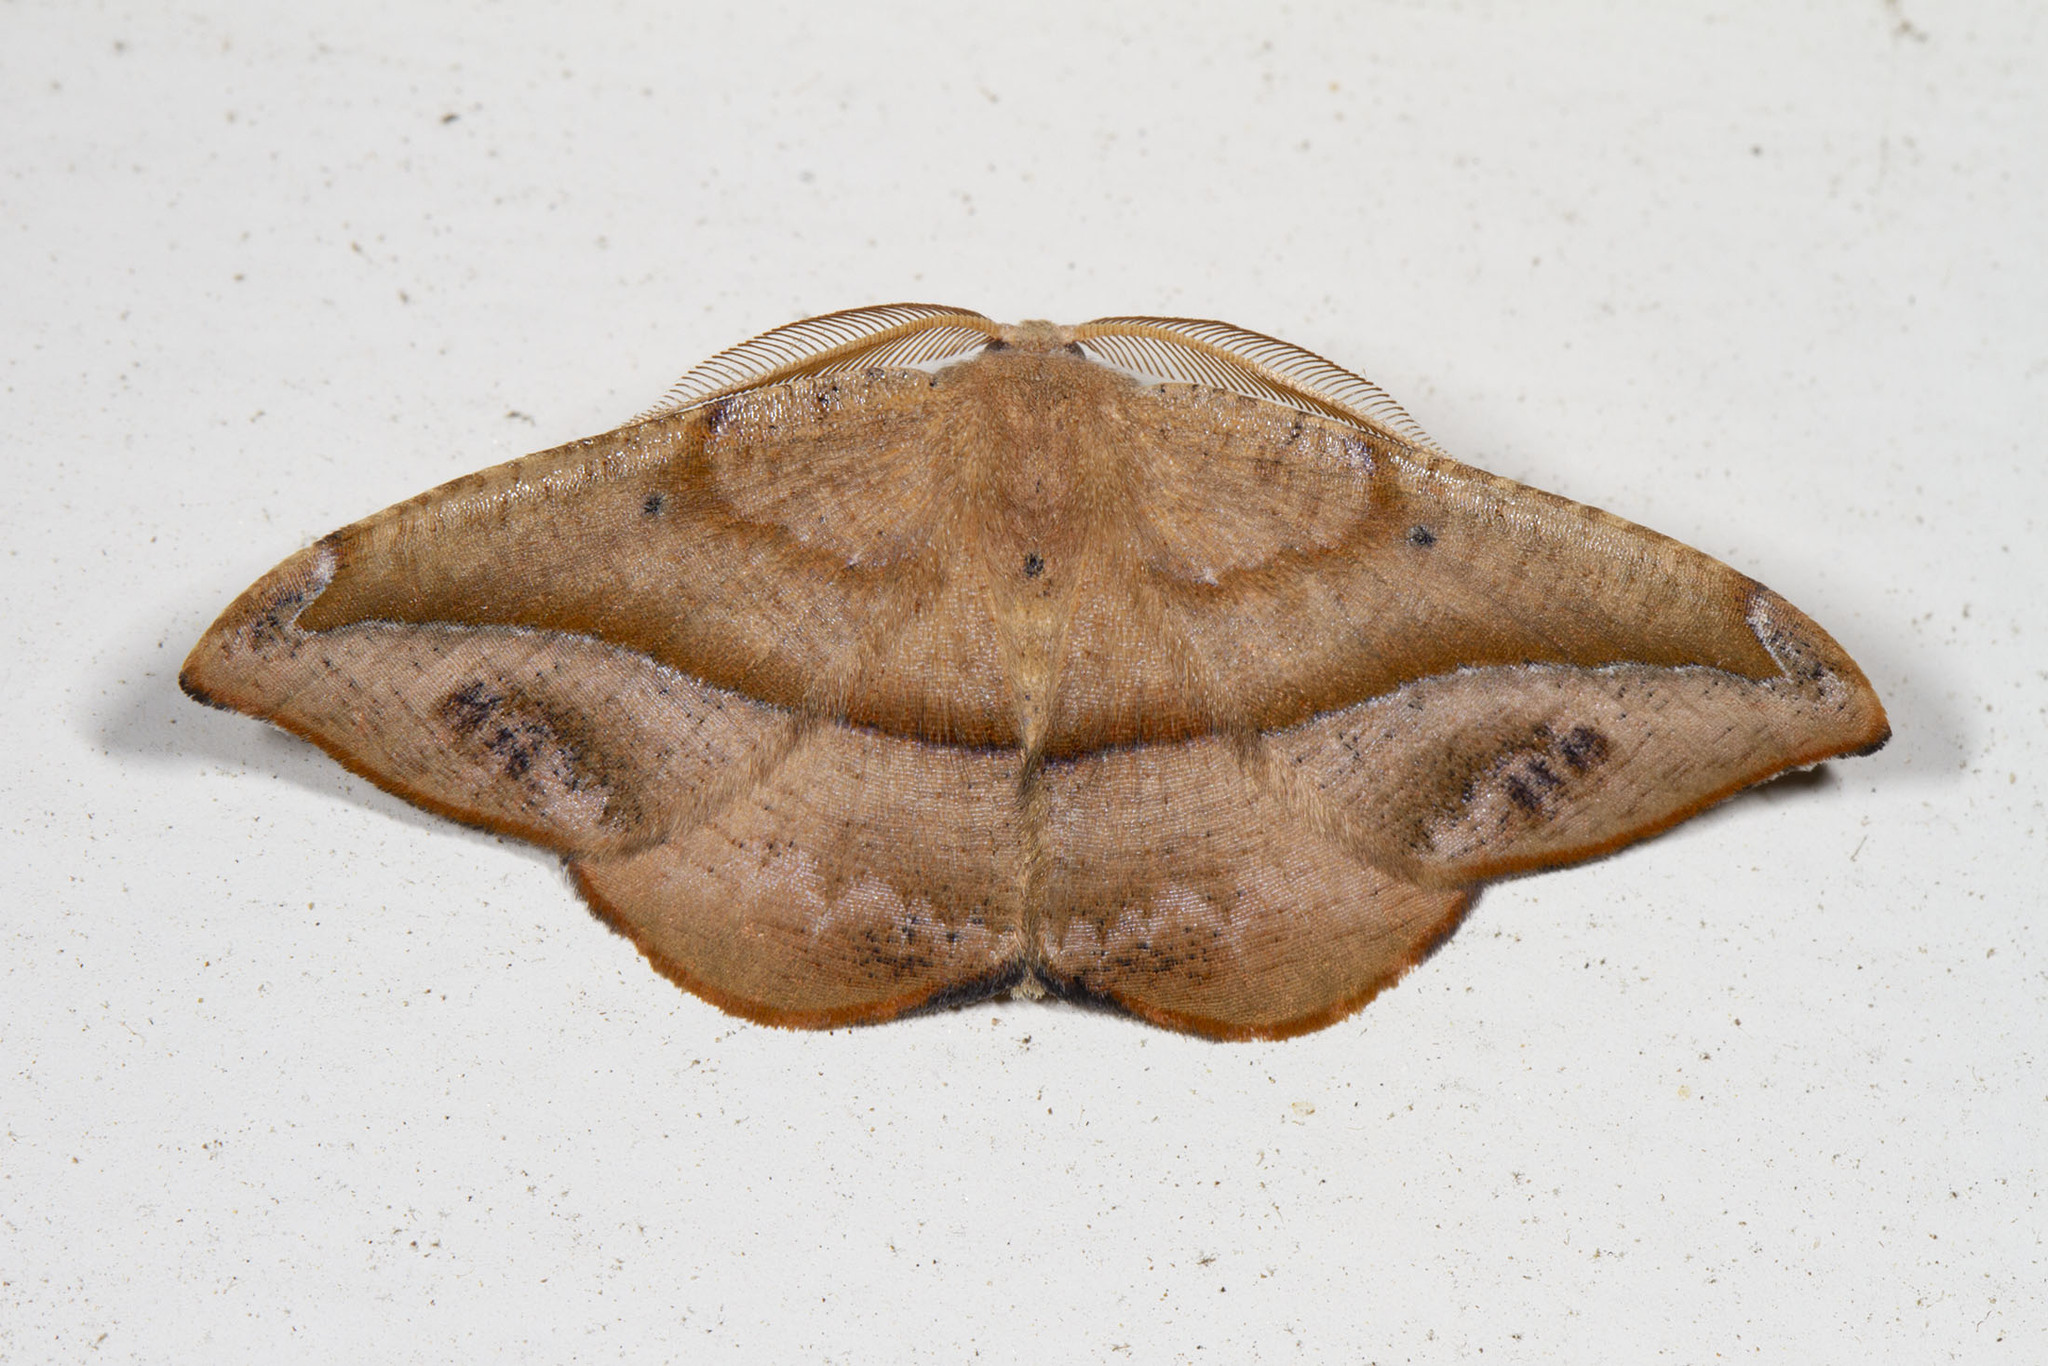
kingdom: Animalia
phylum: Arthropoda
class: Insecta
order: Lepidoptera
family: Geometridae
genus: Patalene
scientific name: Patalene olyzonaria
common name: Juniper geometer moth
